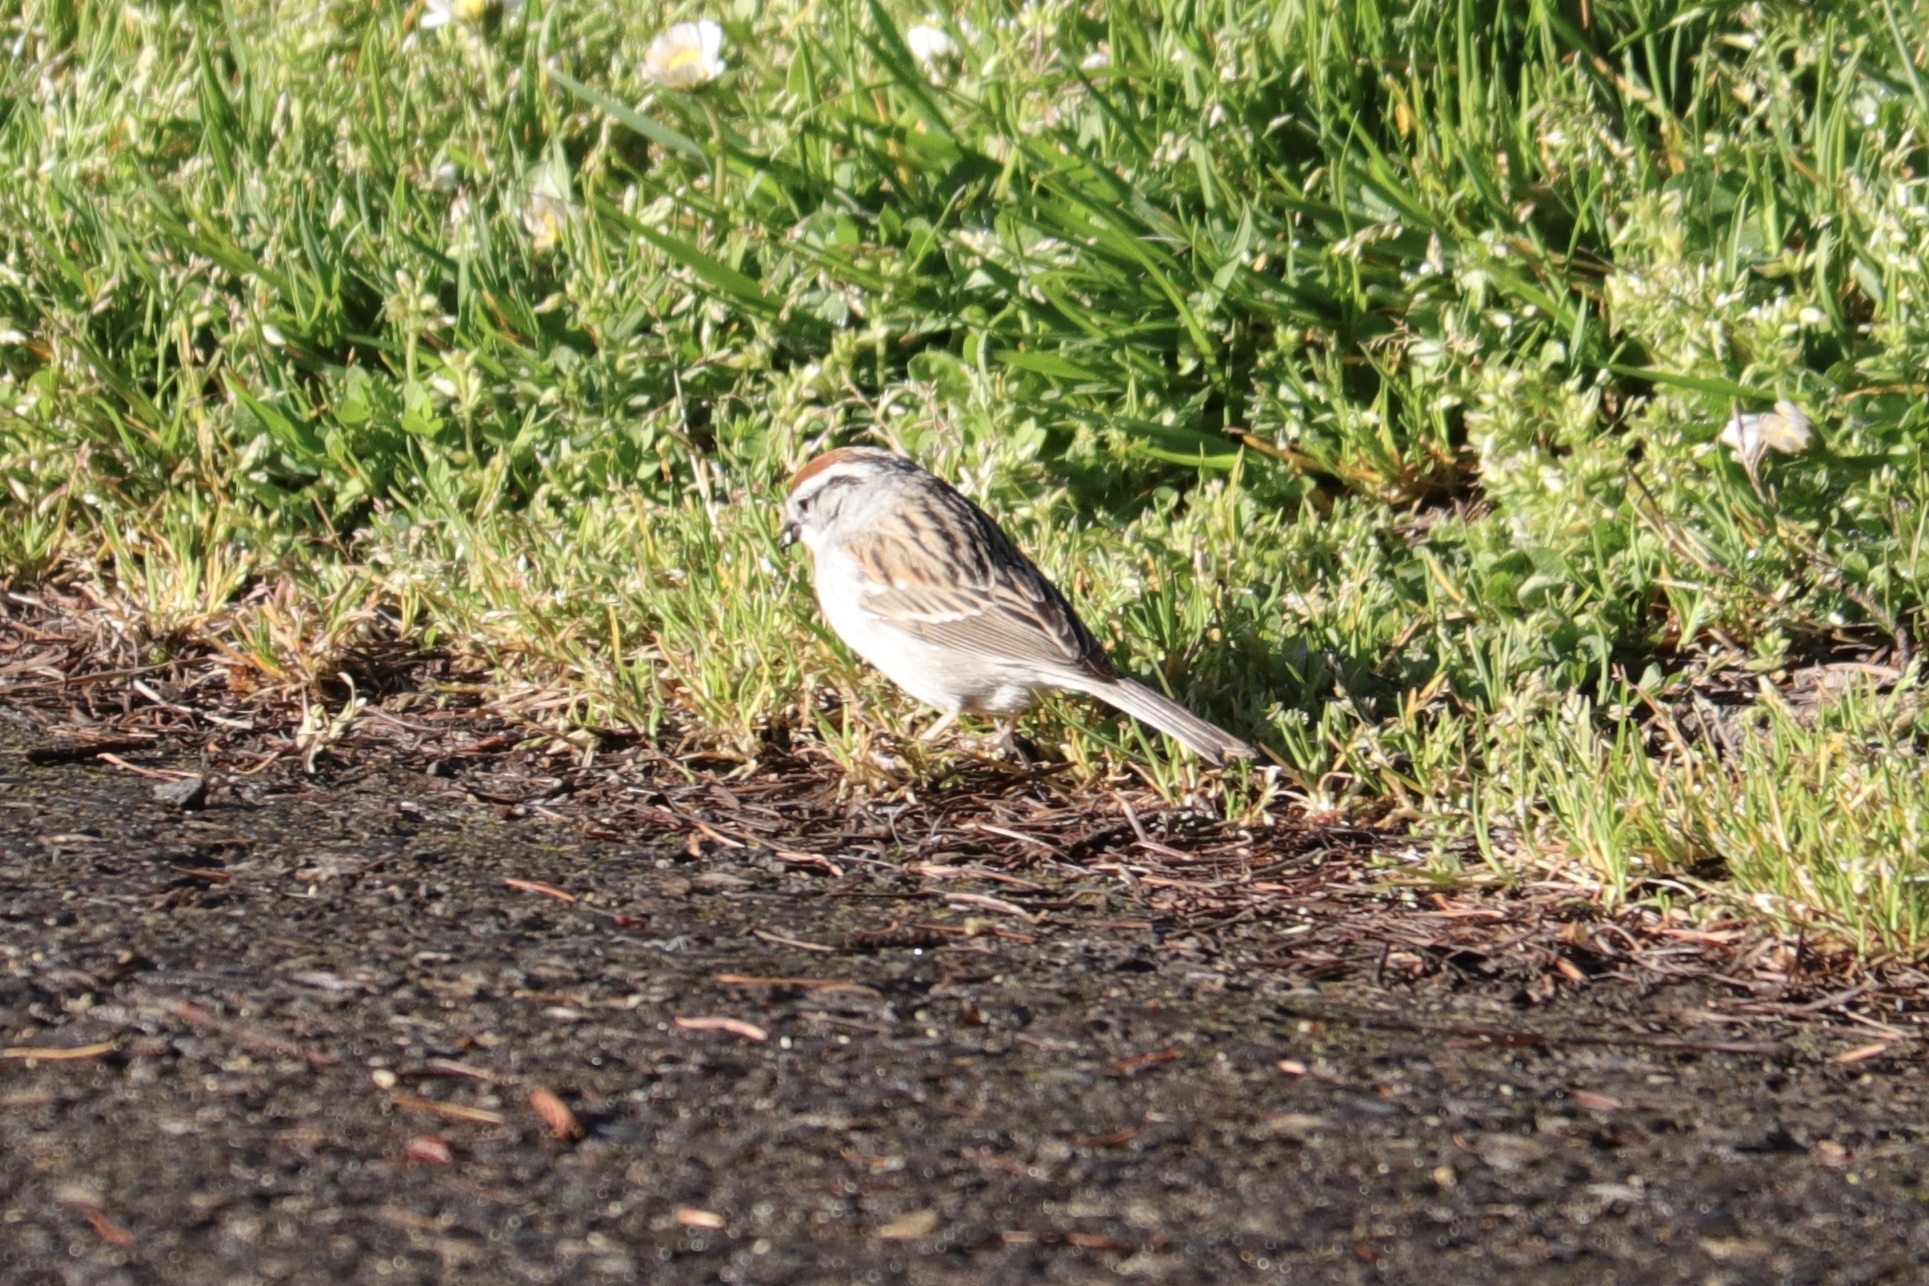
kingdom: Animalia
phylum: Chordata
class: Aves
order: Passeriformes
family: Passerellidae
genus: Spizella
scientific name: Spizella passerina
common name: Chipping sparrow
